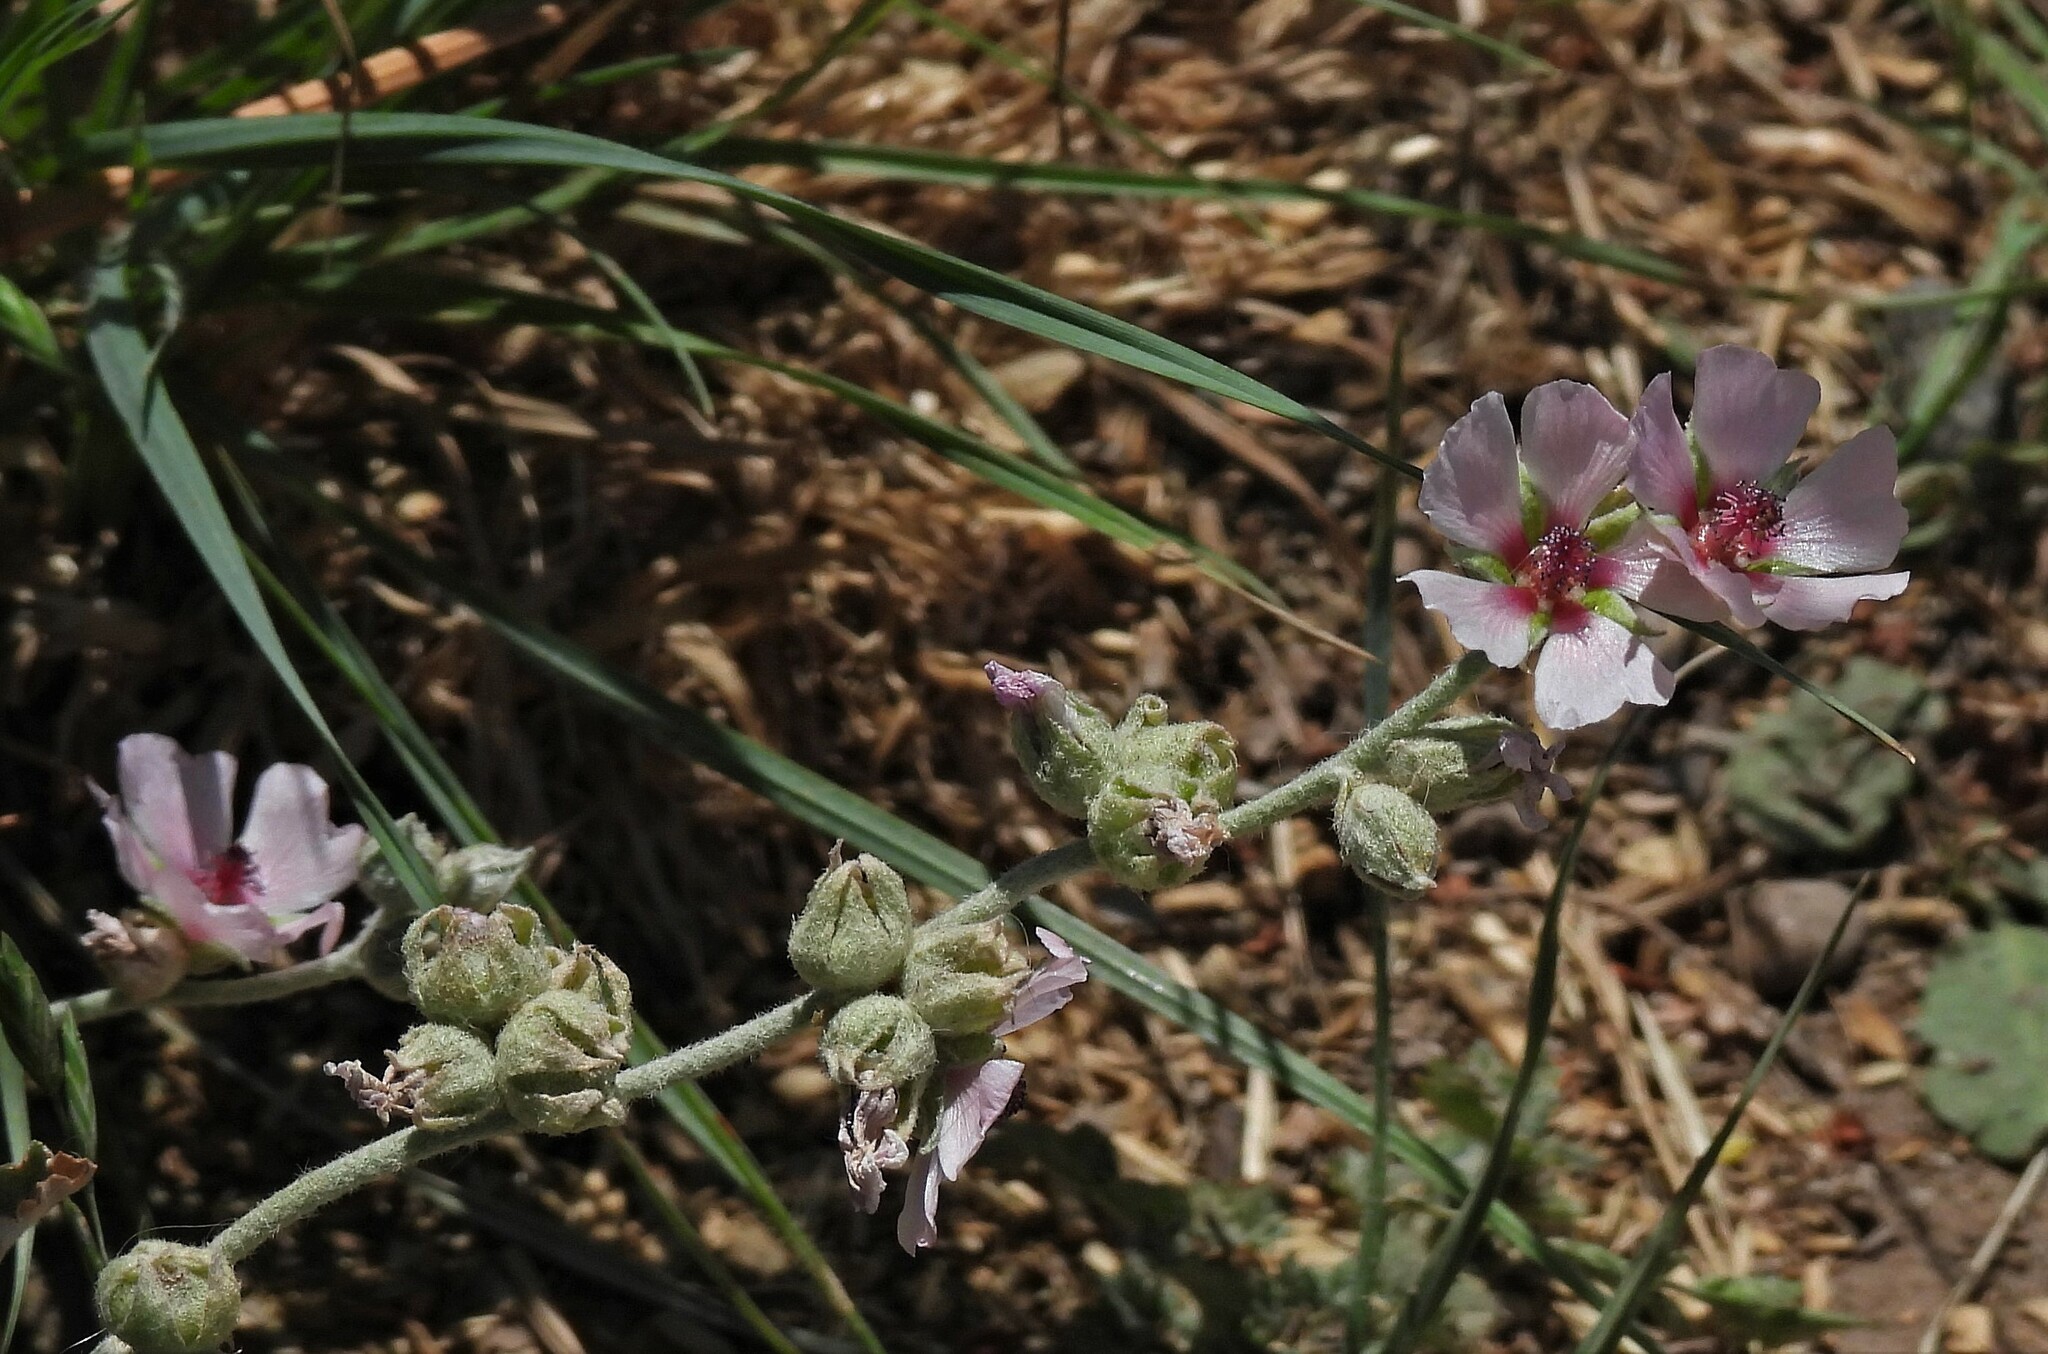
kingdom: Plantae
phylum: Tracheophyta
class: Magnoliopsida
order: Malvales
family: Malvaceae
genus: Sphaeralcea
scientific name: Sphaeralcea mendocina
